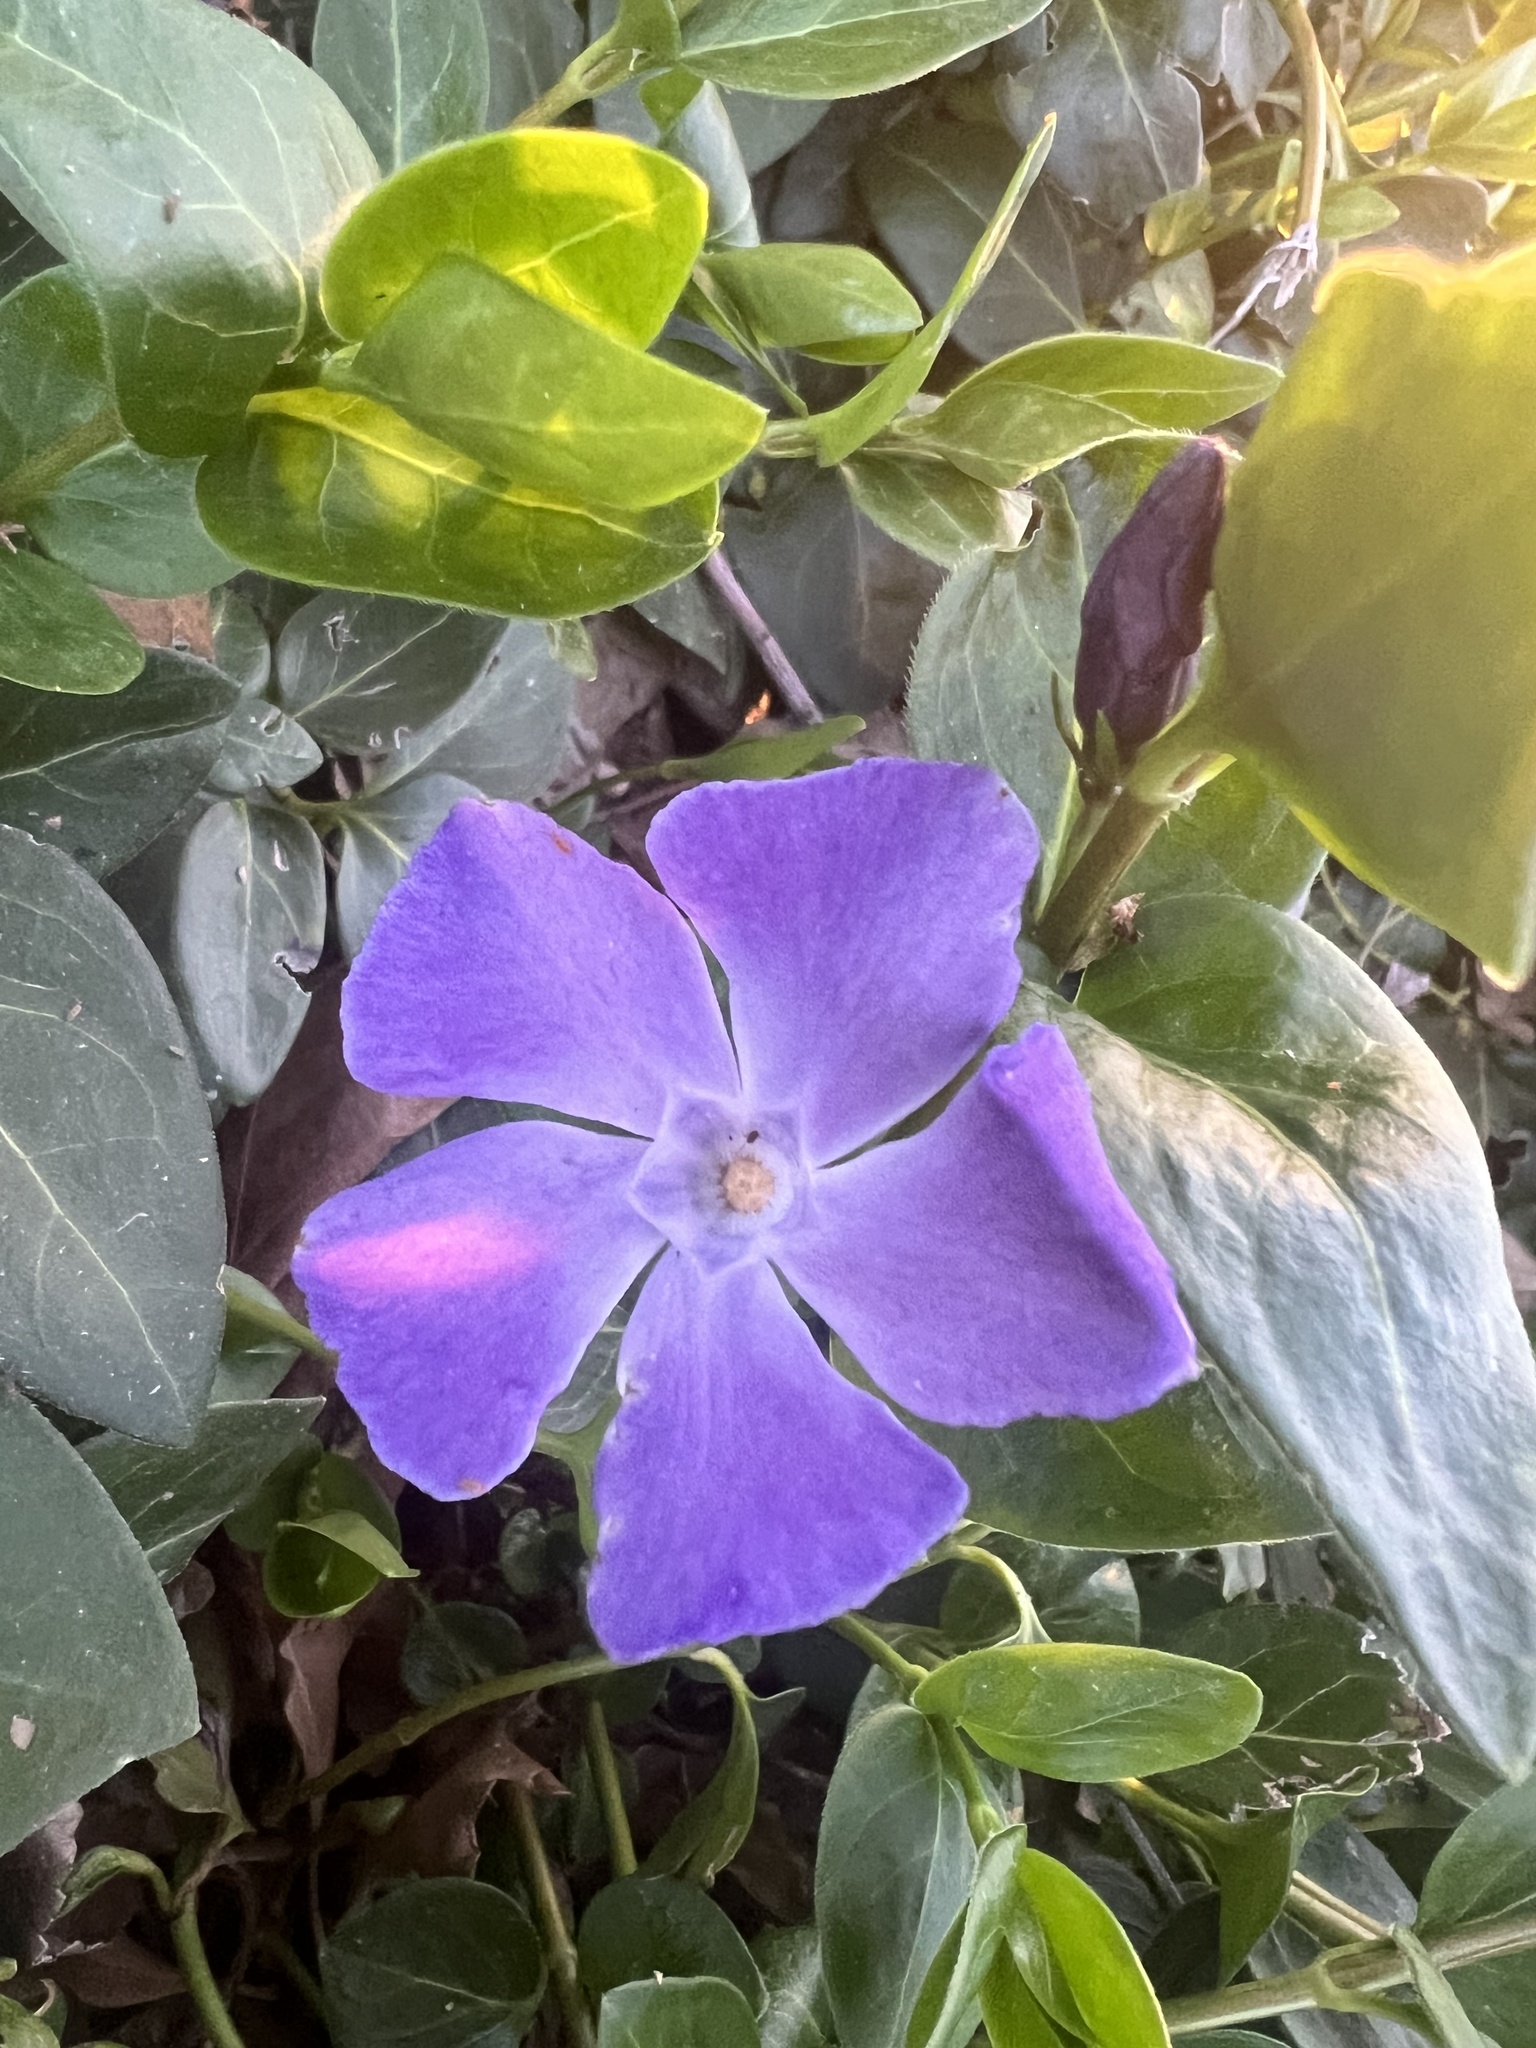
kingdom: Plantae
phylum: Tracheophyta
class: Magnoliopsida
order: Gentianales
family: Apocynaceae
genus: Vinca
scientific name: Vinca major
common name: Greater periwinkle
